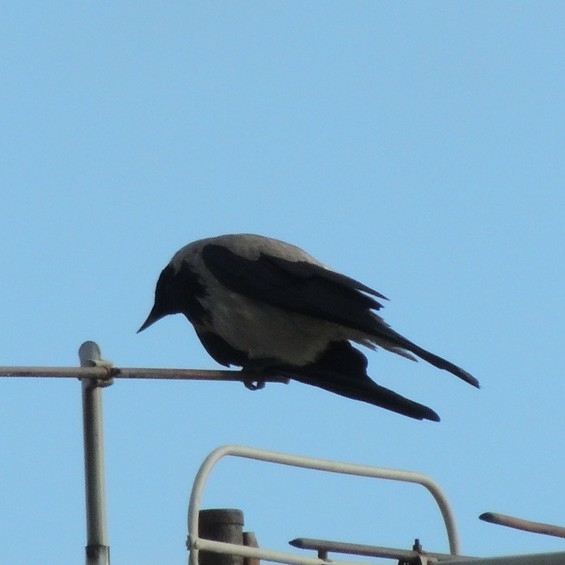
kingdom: Animalia
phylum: Chordata
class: Aves
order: Passeriformes
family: Corvidae
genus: Corvus
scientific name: Corvus cornix
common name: Hooded crow
